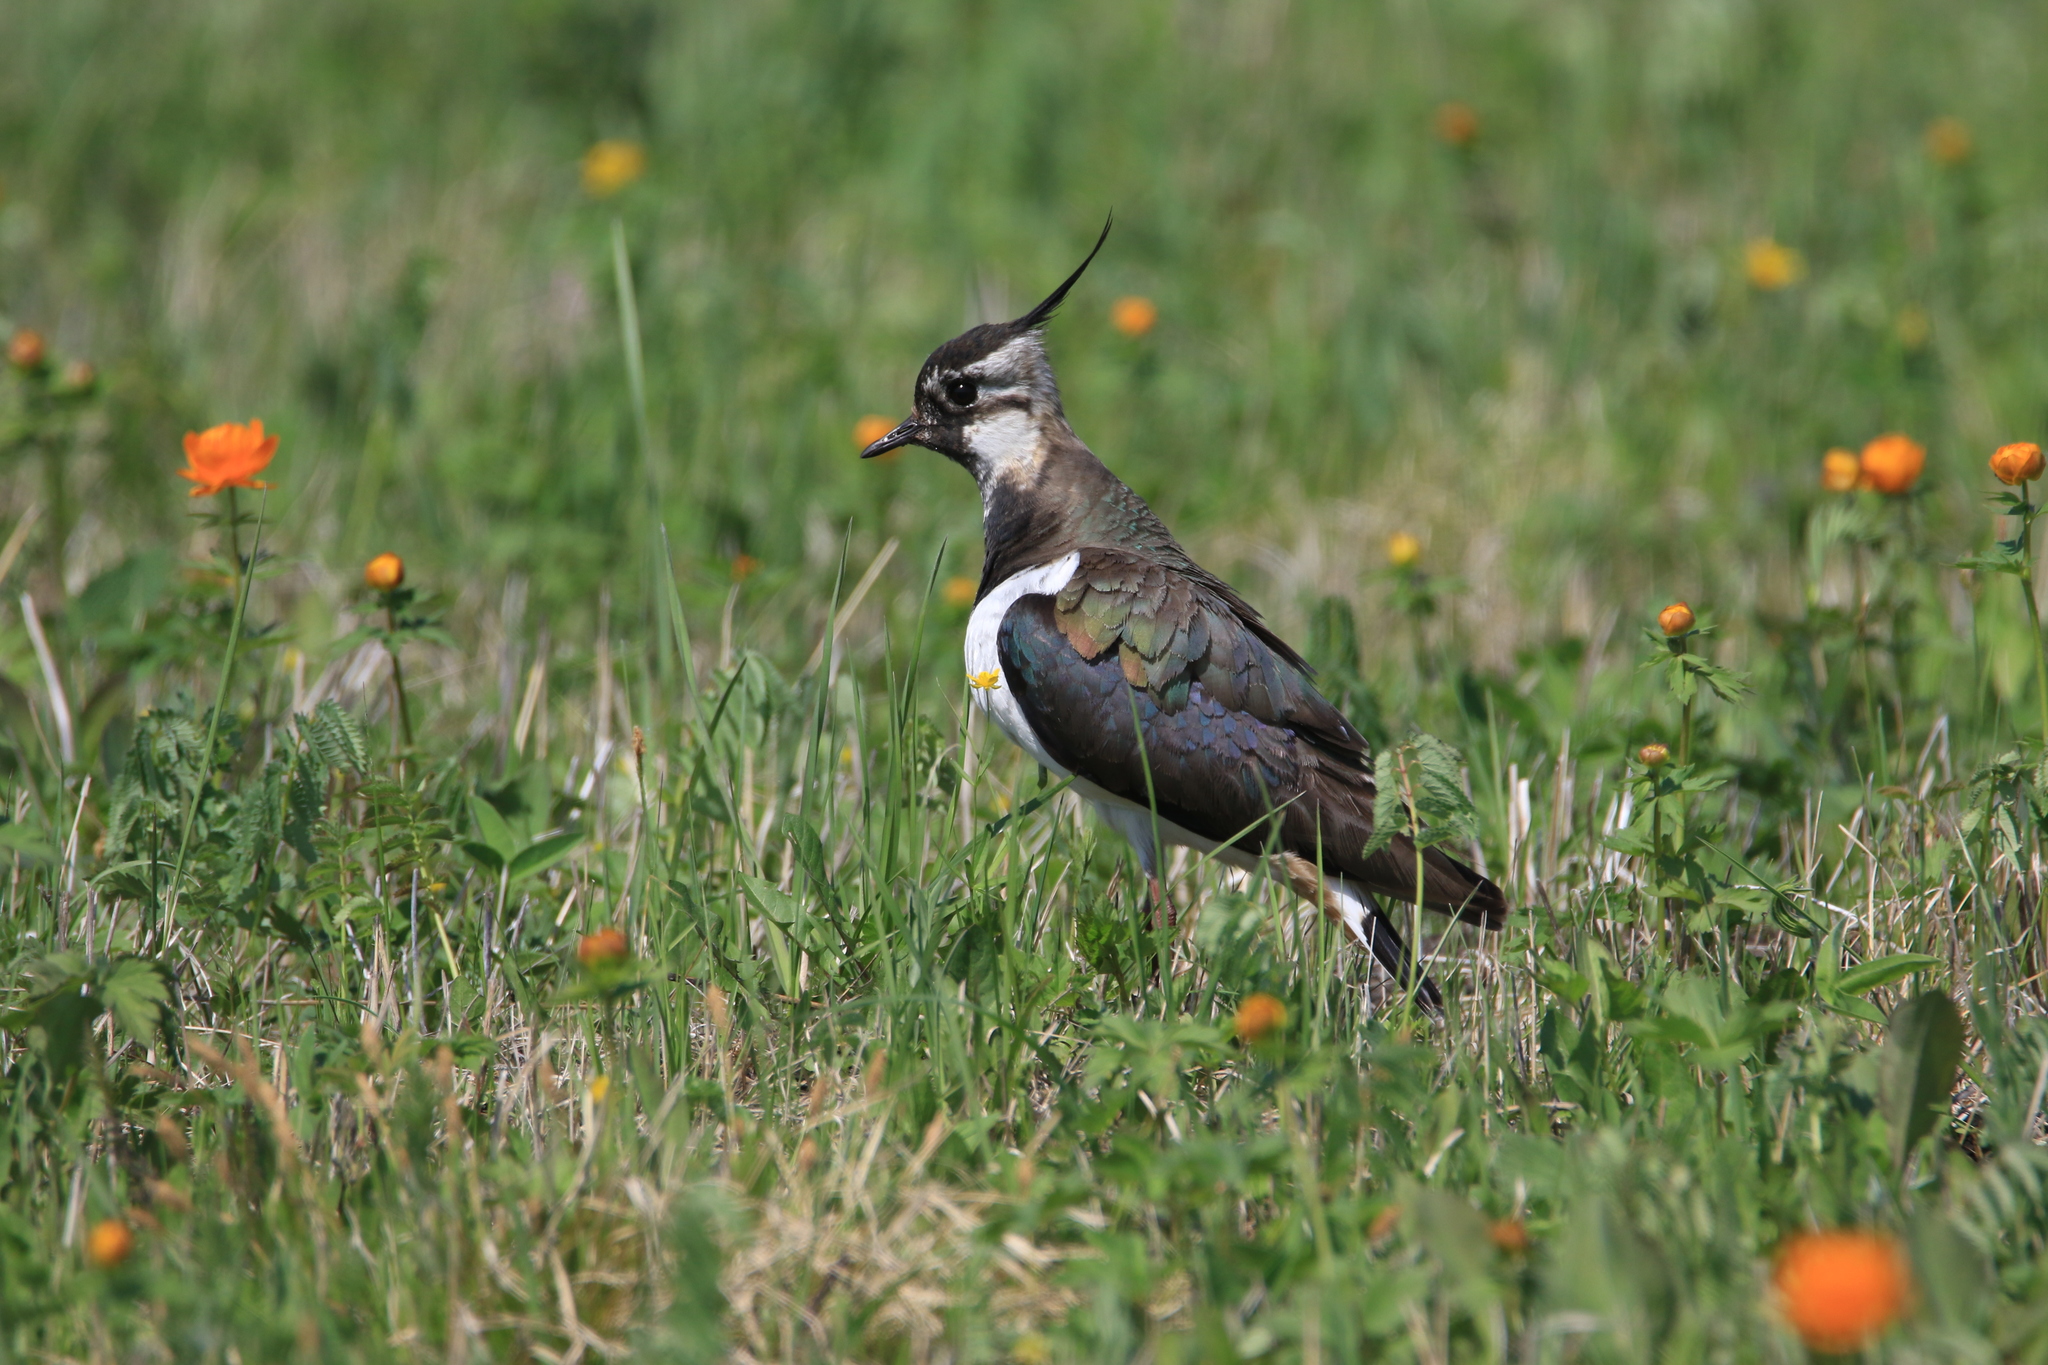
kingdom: Animalia
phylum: Chordata
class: Aves
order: Charadriiformes
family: Charadriidae
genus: Vanellus
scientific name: Vanellus vanellus
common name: Northern lapwing
